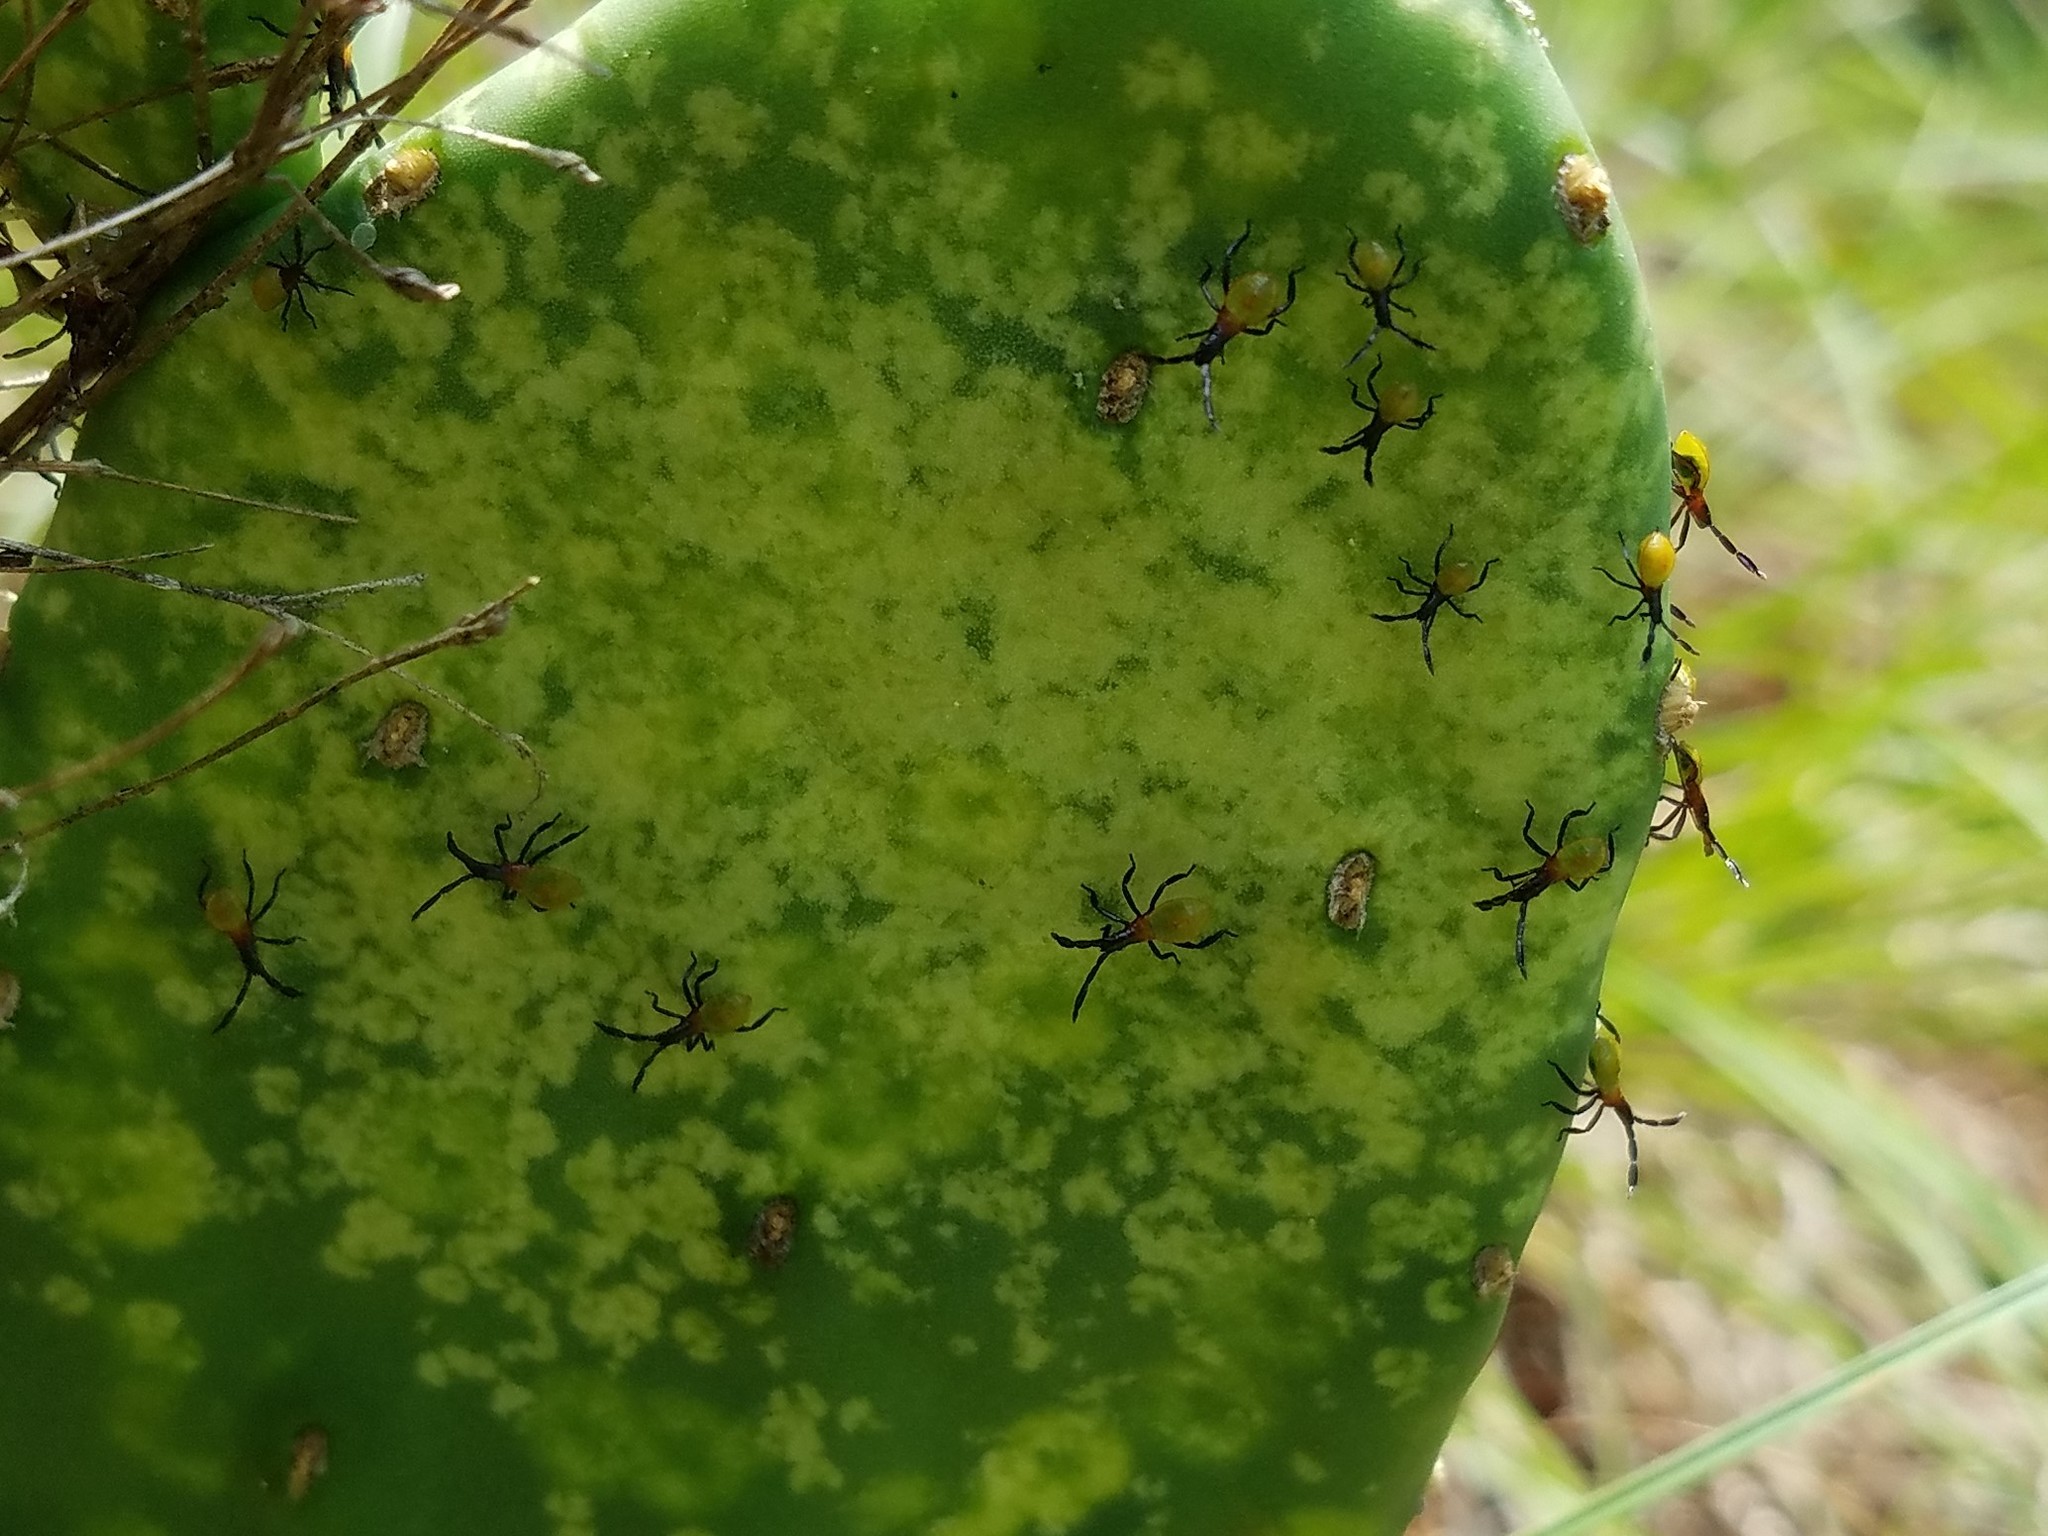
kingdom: Animalia
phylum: Arthropoda
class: Insecta
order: Hemiptera
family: Coreidae
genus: Chelinidea
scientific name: Chelinidea vittiger
